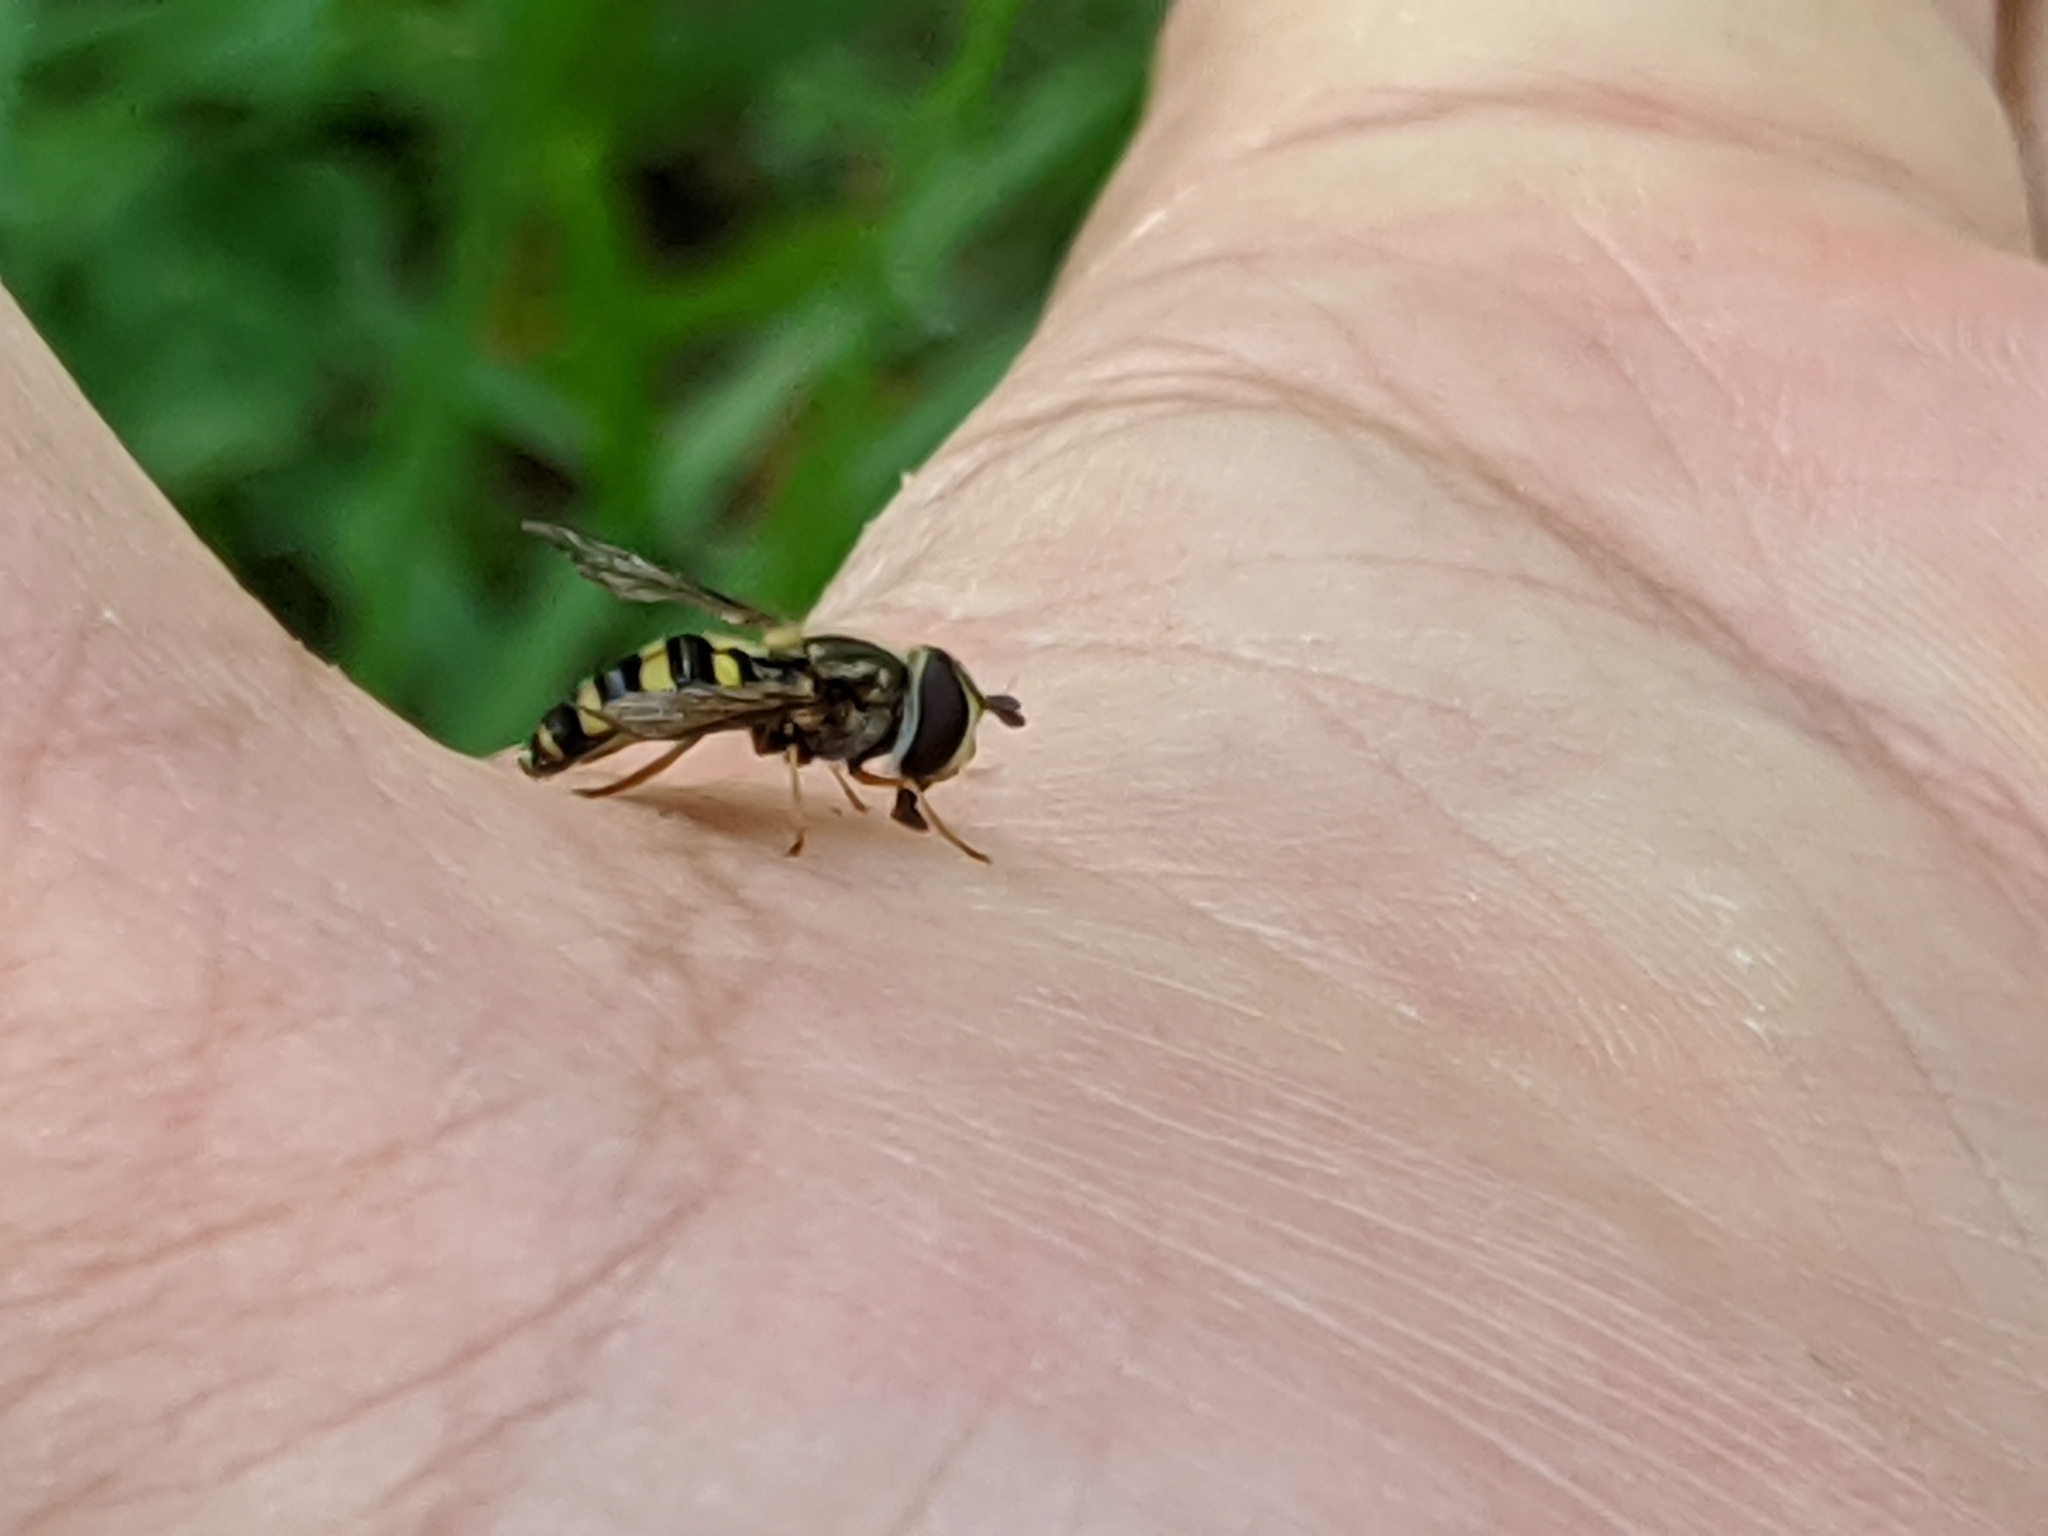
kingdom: Animalia
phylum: Arthropoda
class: Insecta
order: Diptera
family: Syrphidae
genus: Eupeodes
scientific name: Eupeodes
